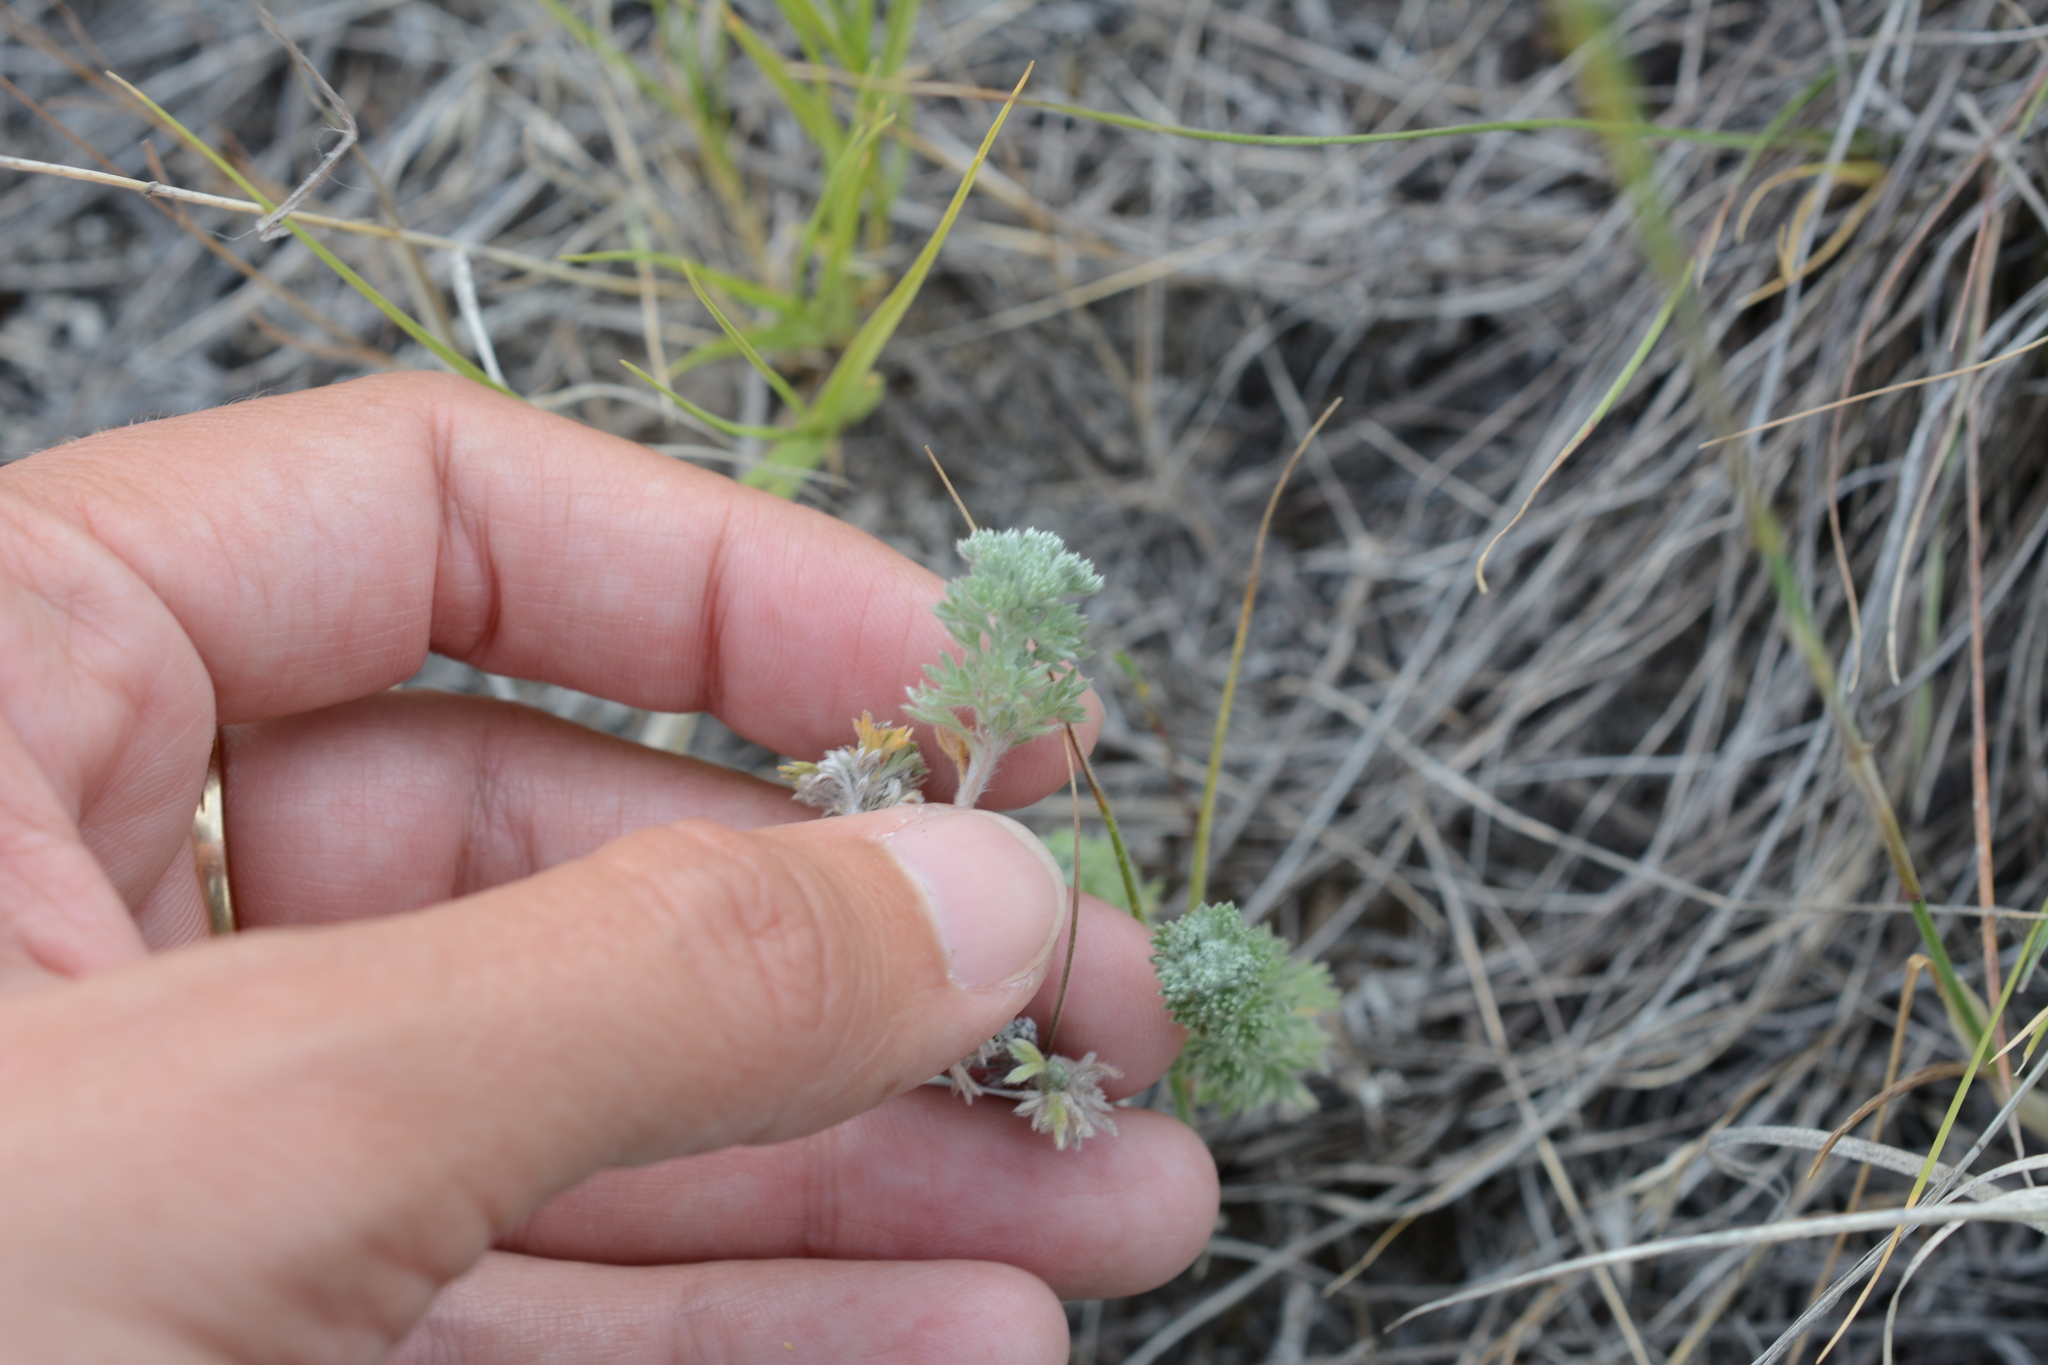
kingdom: Plantae
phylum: Tracheophyta
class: Magnoliopsida
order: Asterales
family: Asteraceae
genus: Artemisia
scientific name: Artemisia frigida
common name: Prairie sagewort
